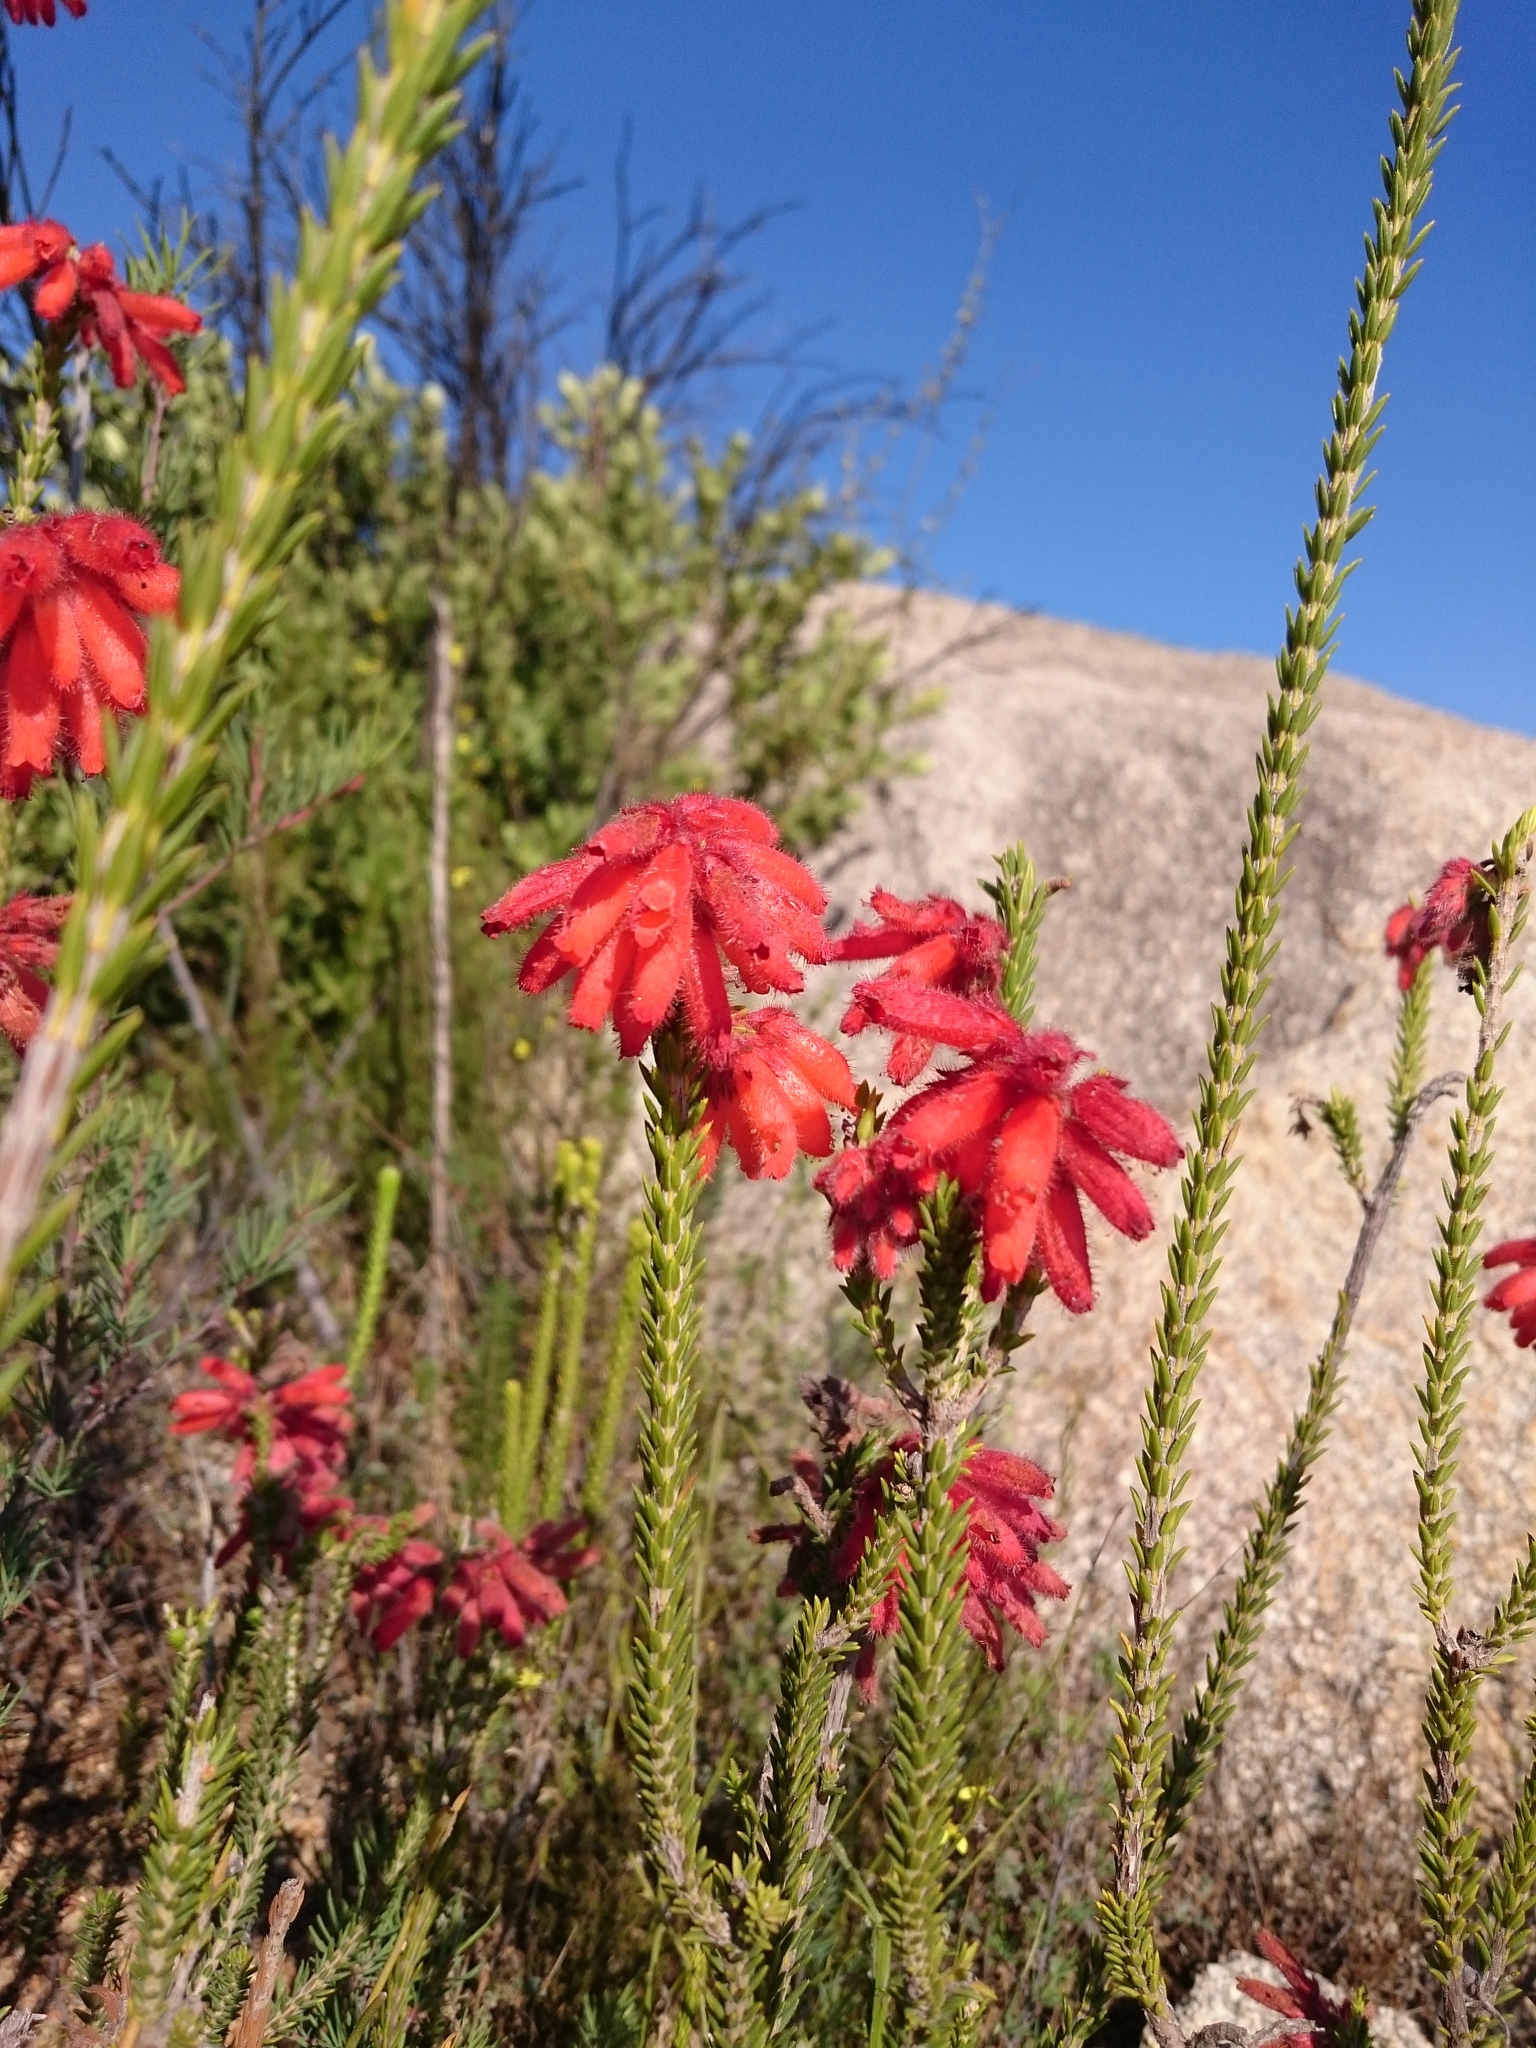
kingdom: Plantae
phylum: Tracheophyta
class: Magnoliopsida
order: Ericales
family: Ericaceae
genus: Erica
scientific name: Erica cerinthoides
